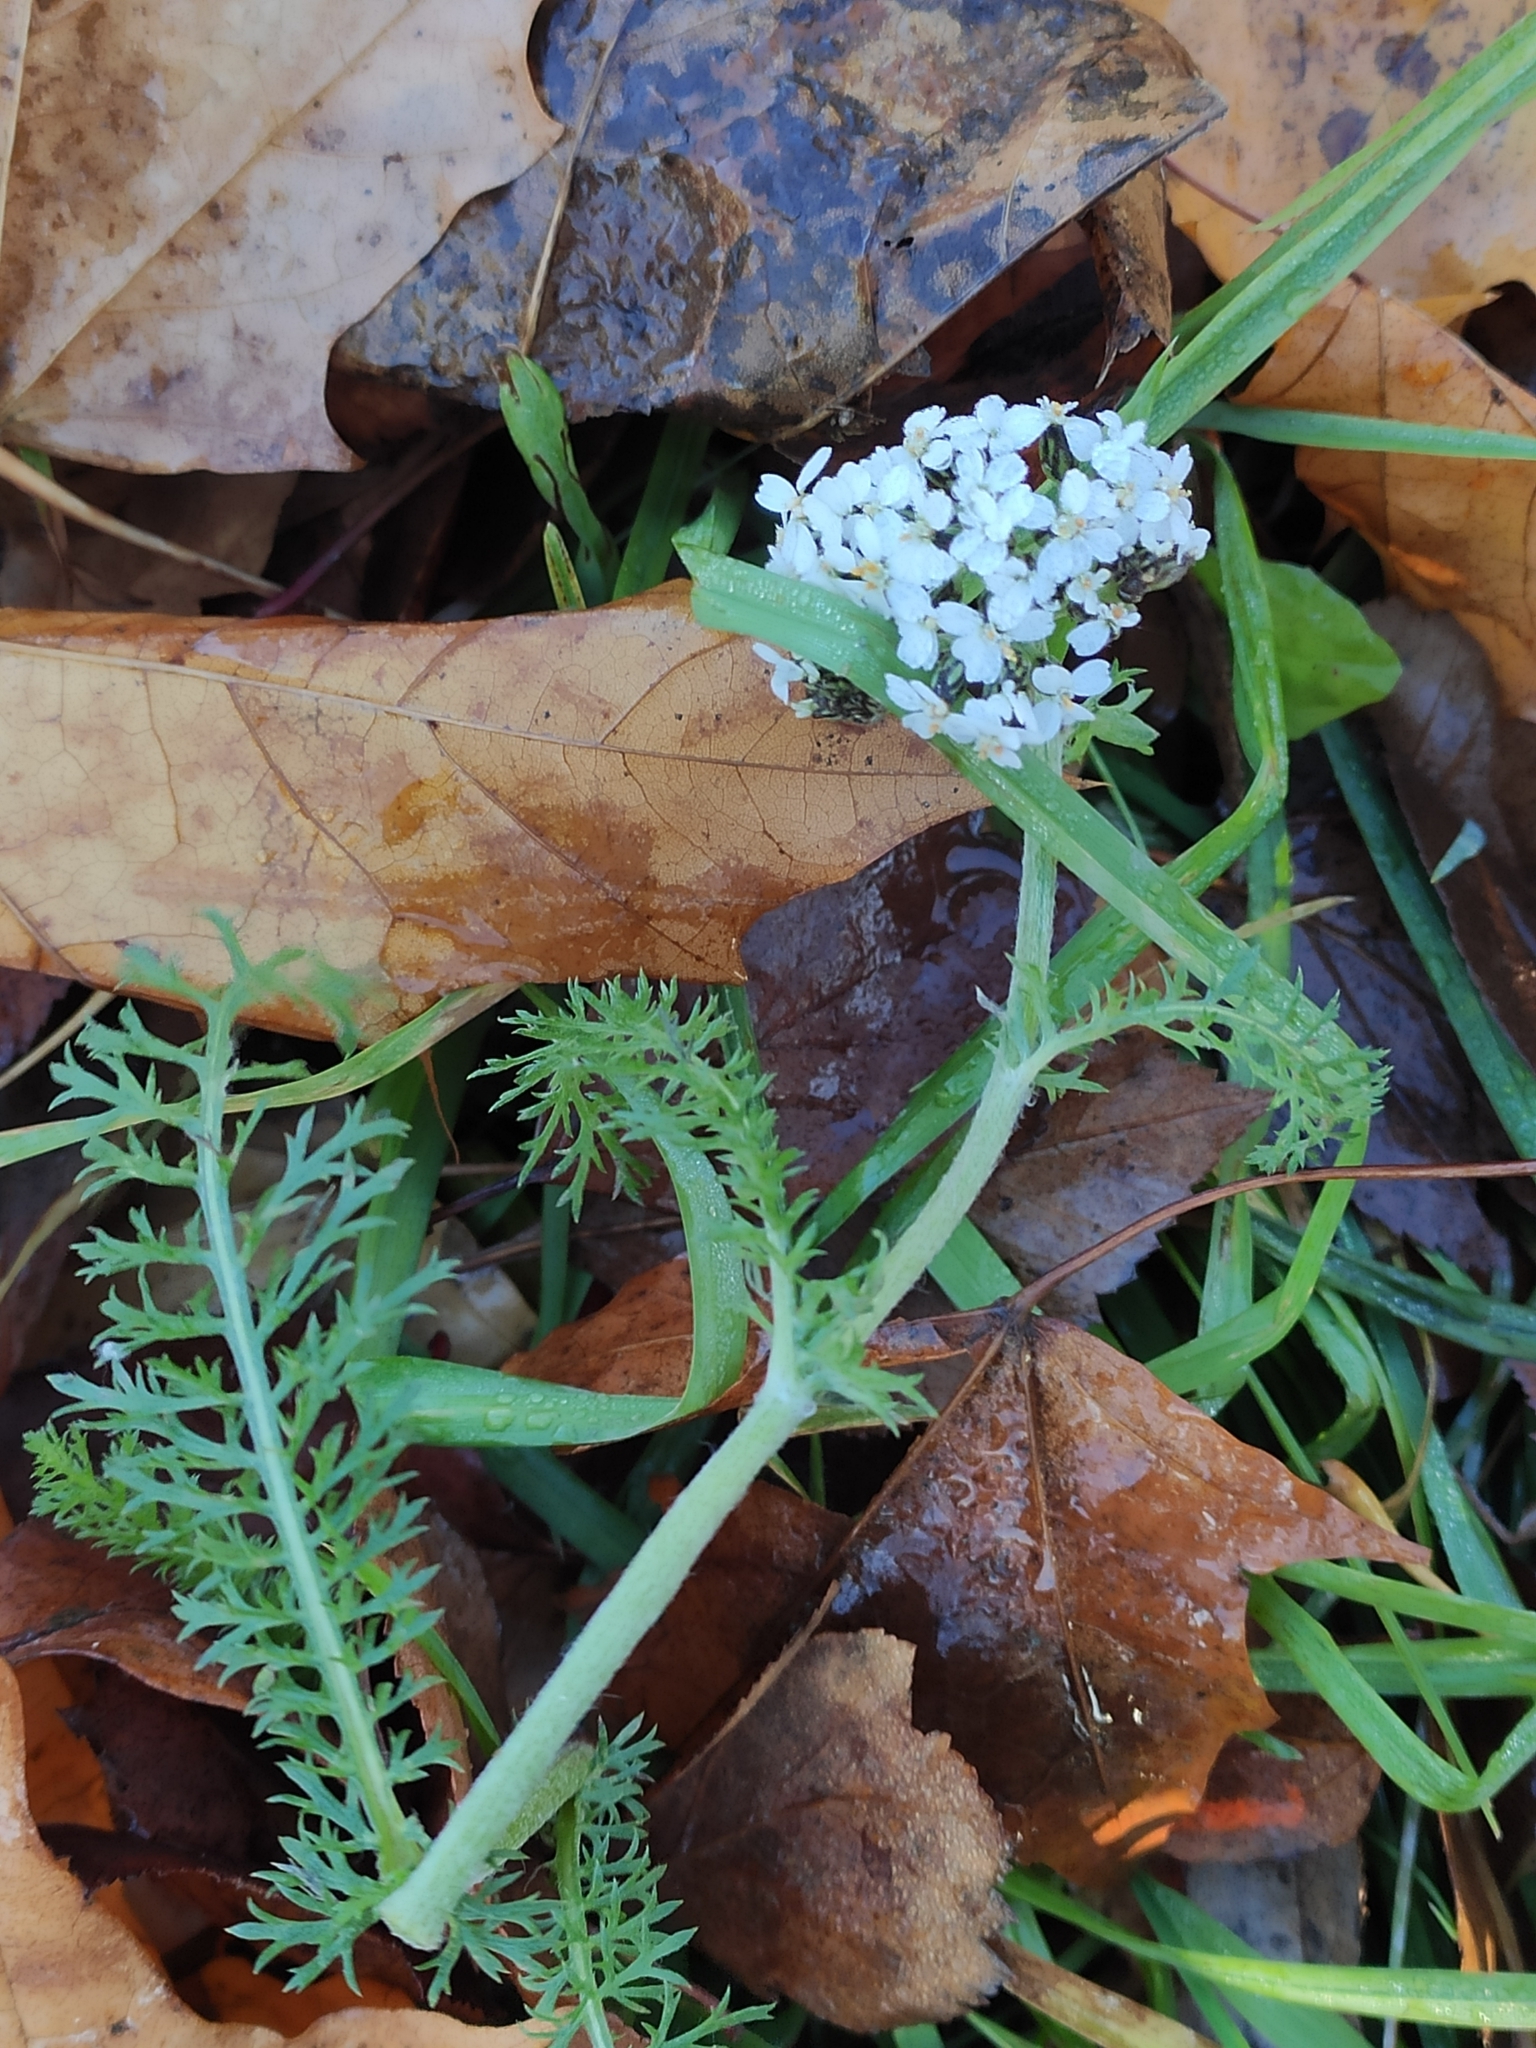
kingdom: Plantae
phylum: Tracheophyta
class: Magnoliopsida
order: Asterales
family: Asteraceae
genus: Achillea
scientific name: Achillea millefolium
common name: Yarrow
